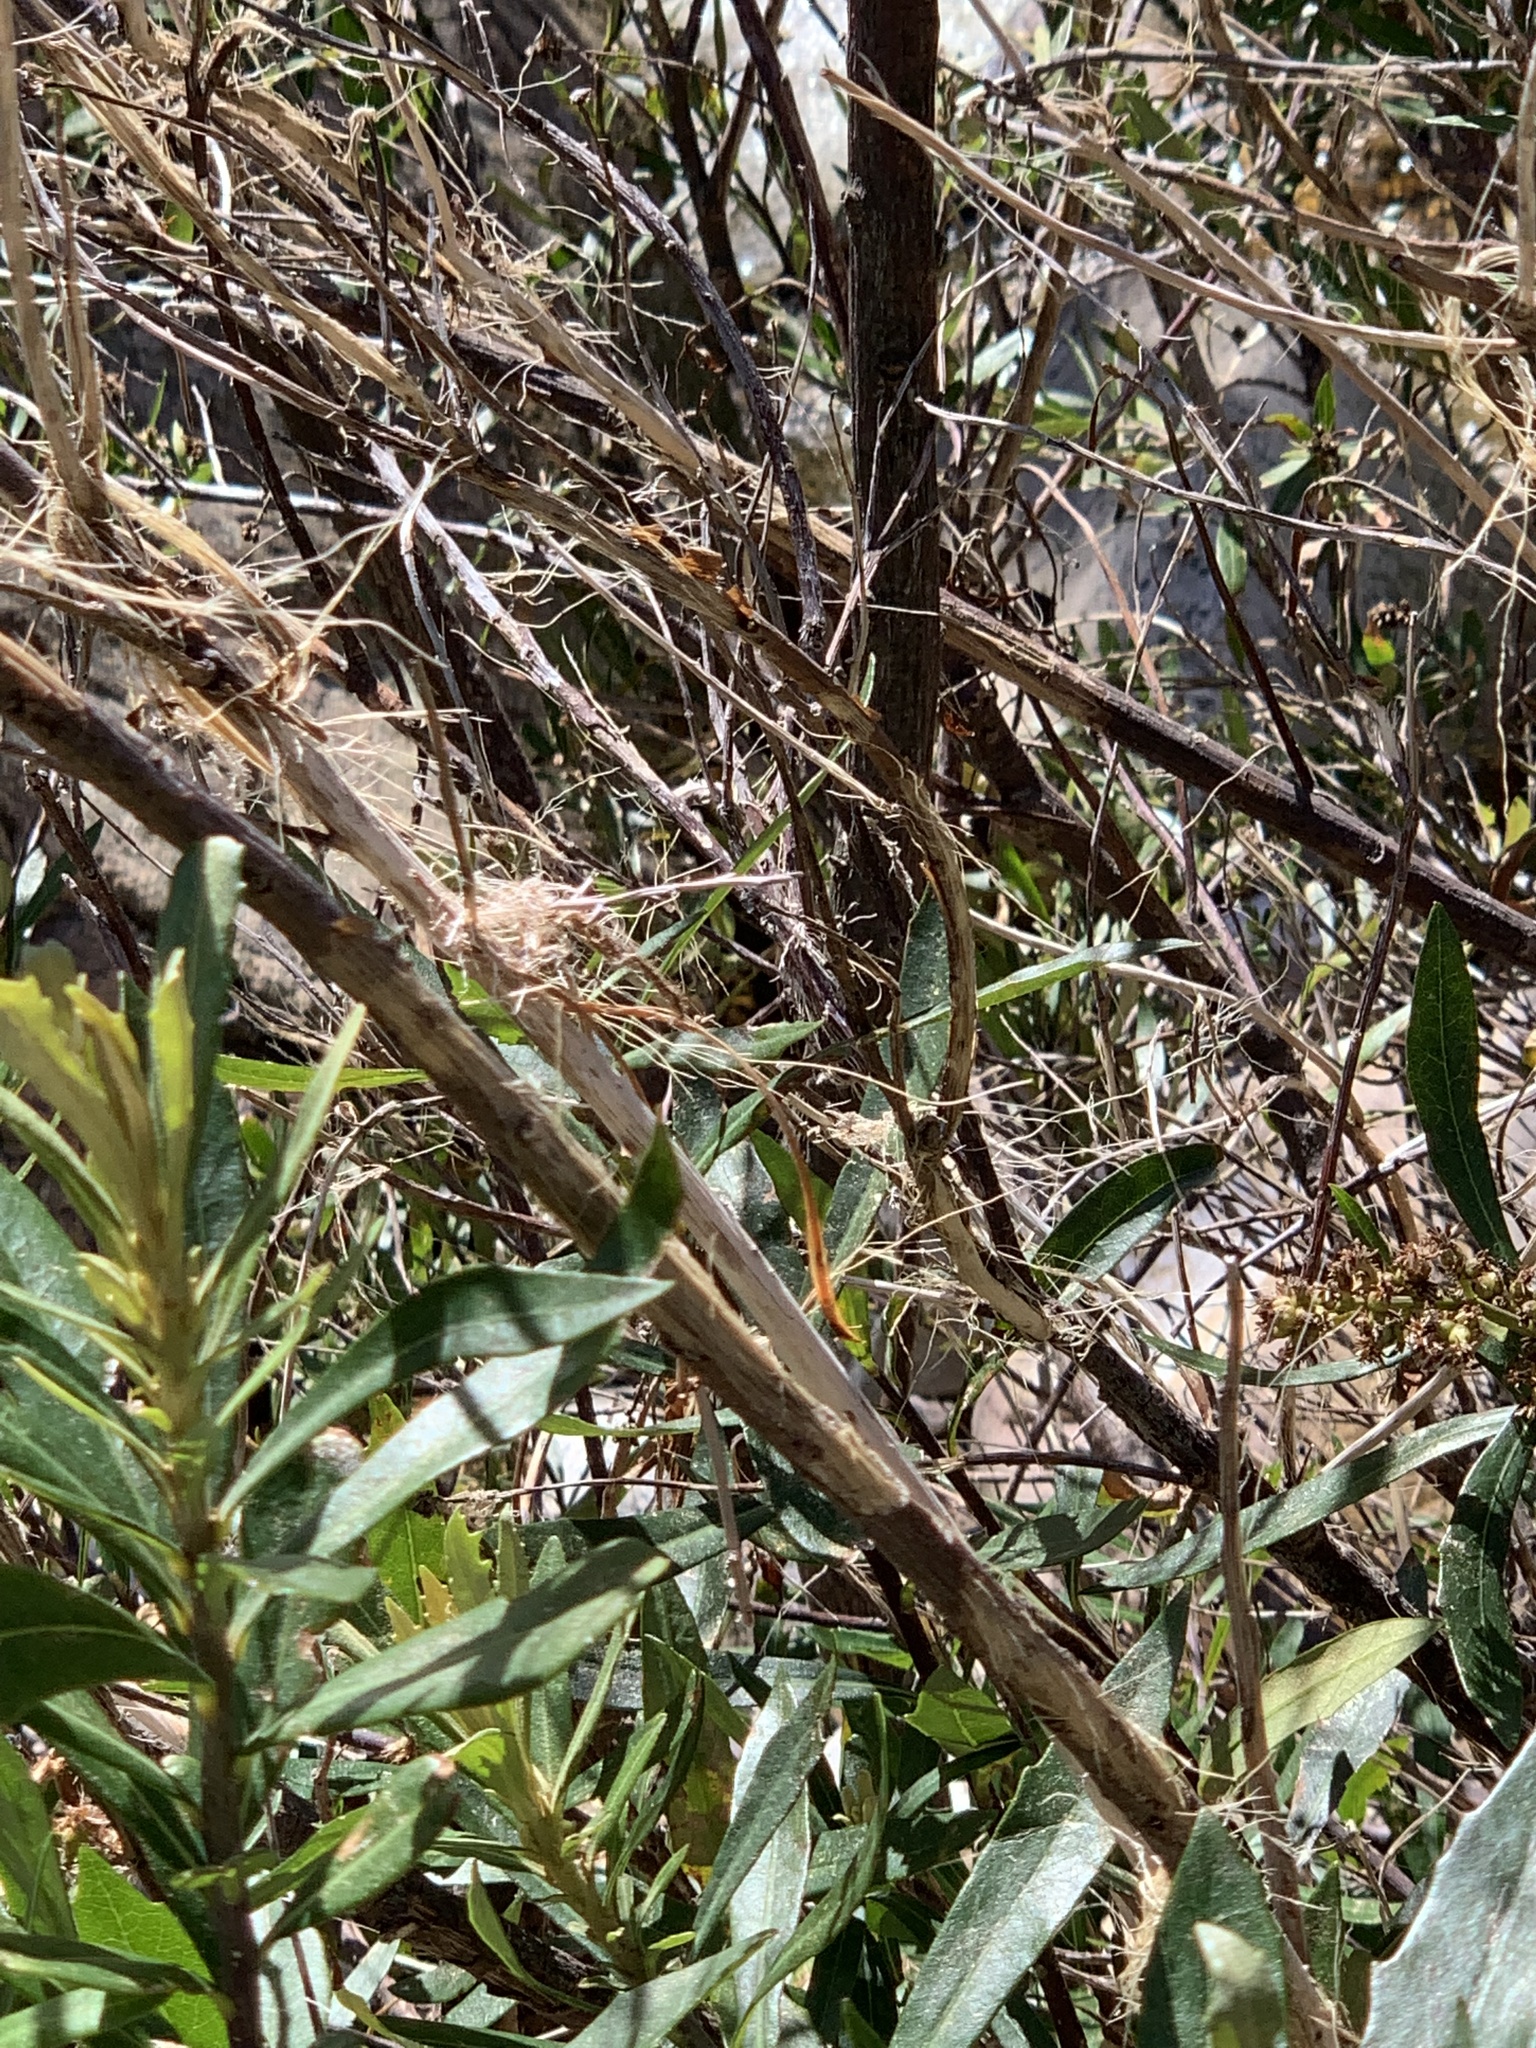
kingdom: Plantae
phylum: Tracheophyta
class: Magnoliopsida
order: Asterales
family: Asteraceae
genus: Brachylaena
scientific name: Brachylaena neriifolia
